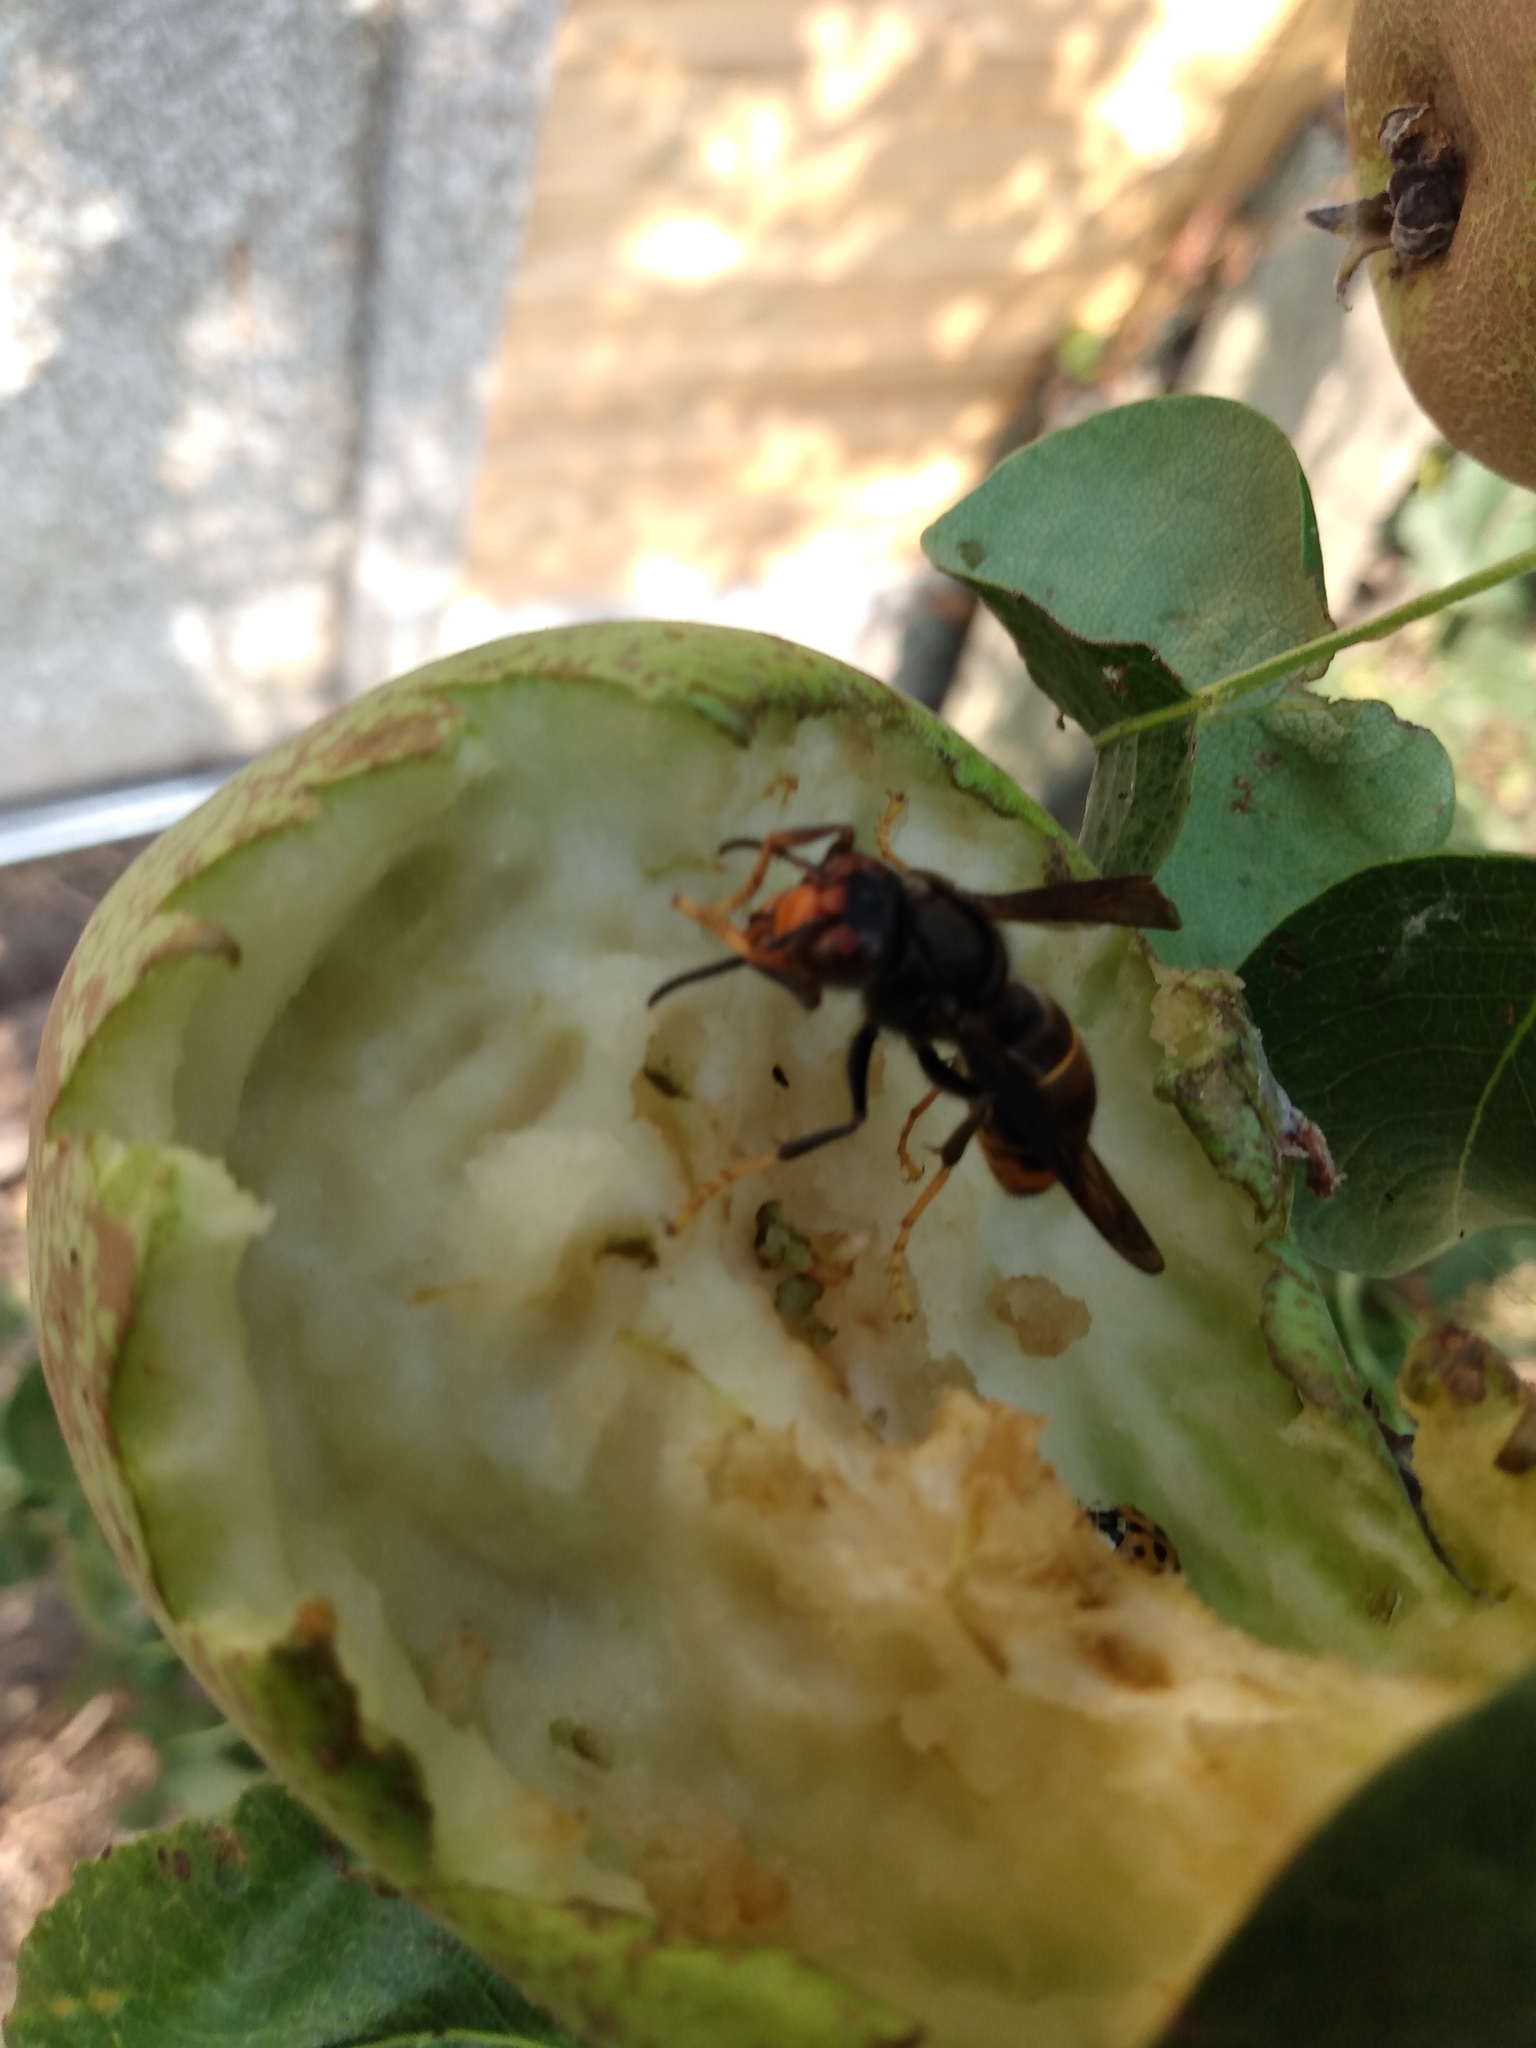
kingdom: Animalia
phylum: Arthropoda
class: Insecta
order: Hymenoptera
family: Vespidae
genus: Vespa
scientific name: Vespa velutina
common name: Asian hornet
